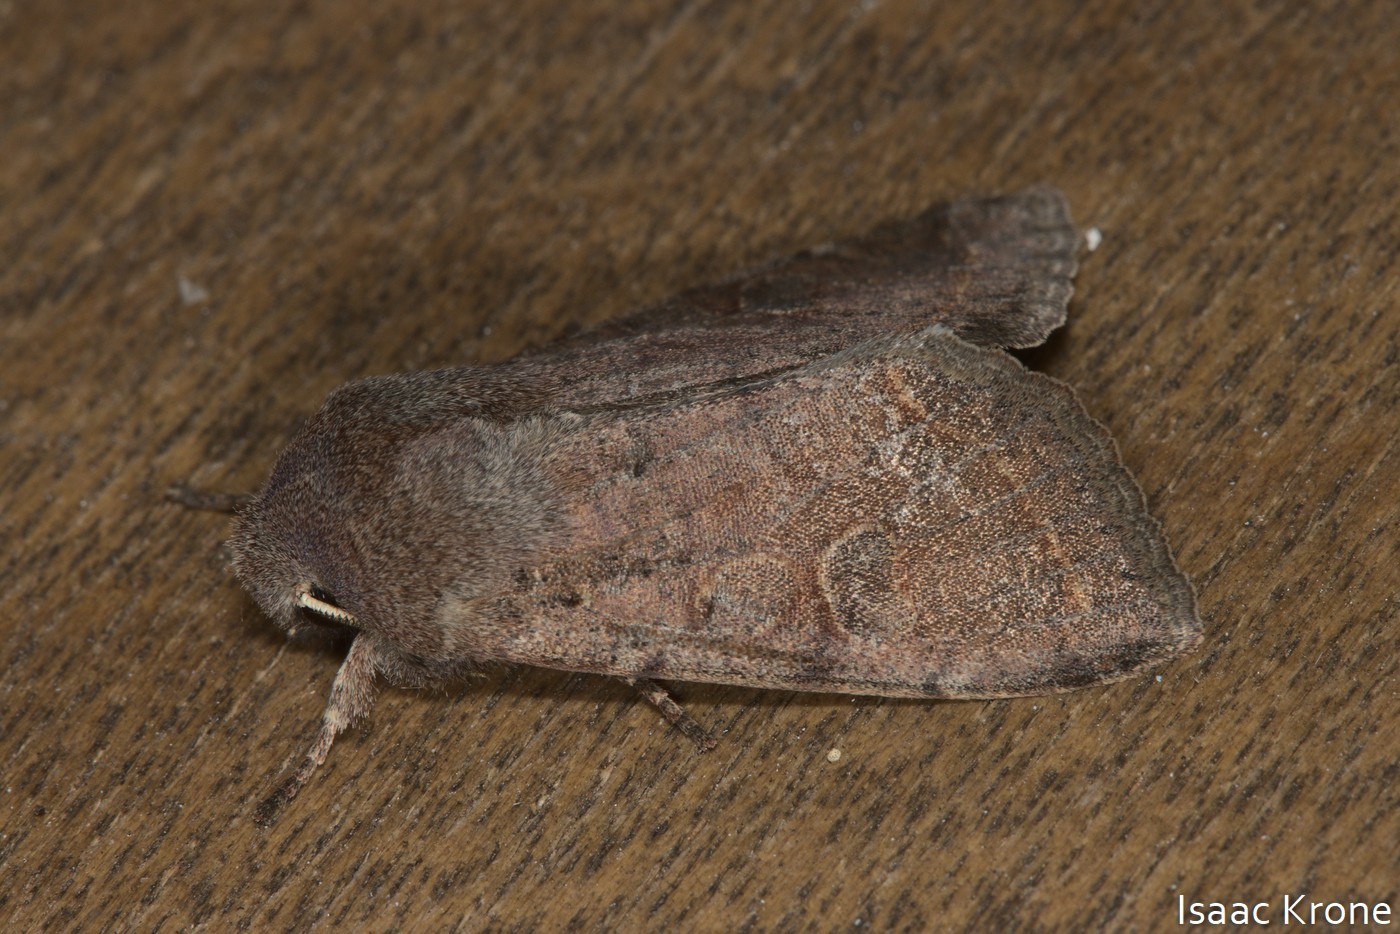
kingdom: Animalia
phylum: Arthropoda
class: Insecta
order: Lepidoptera
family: Noctuidae
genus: Orthosia
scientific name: Orthosia hibisci
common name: Green fruitworm
